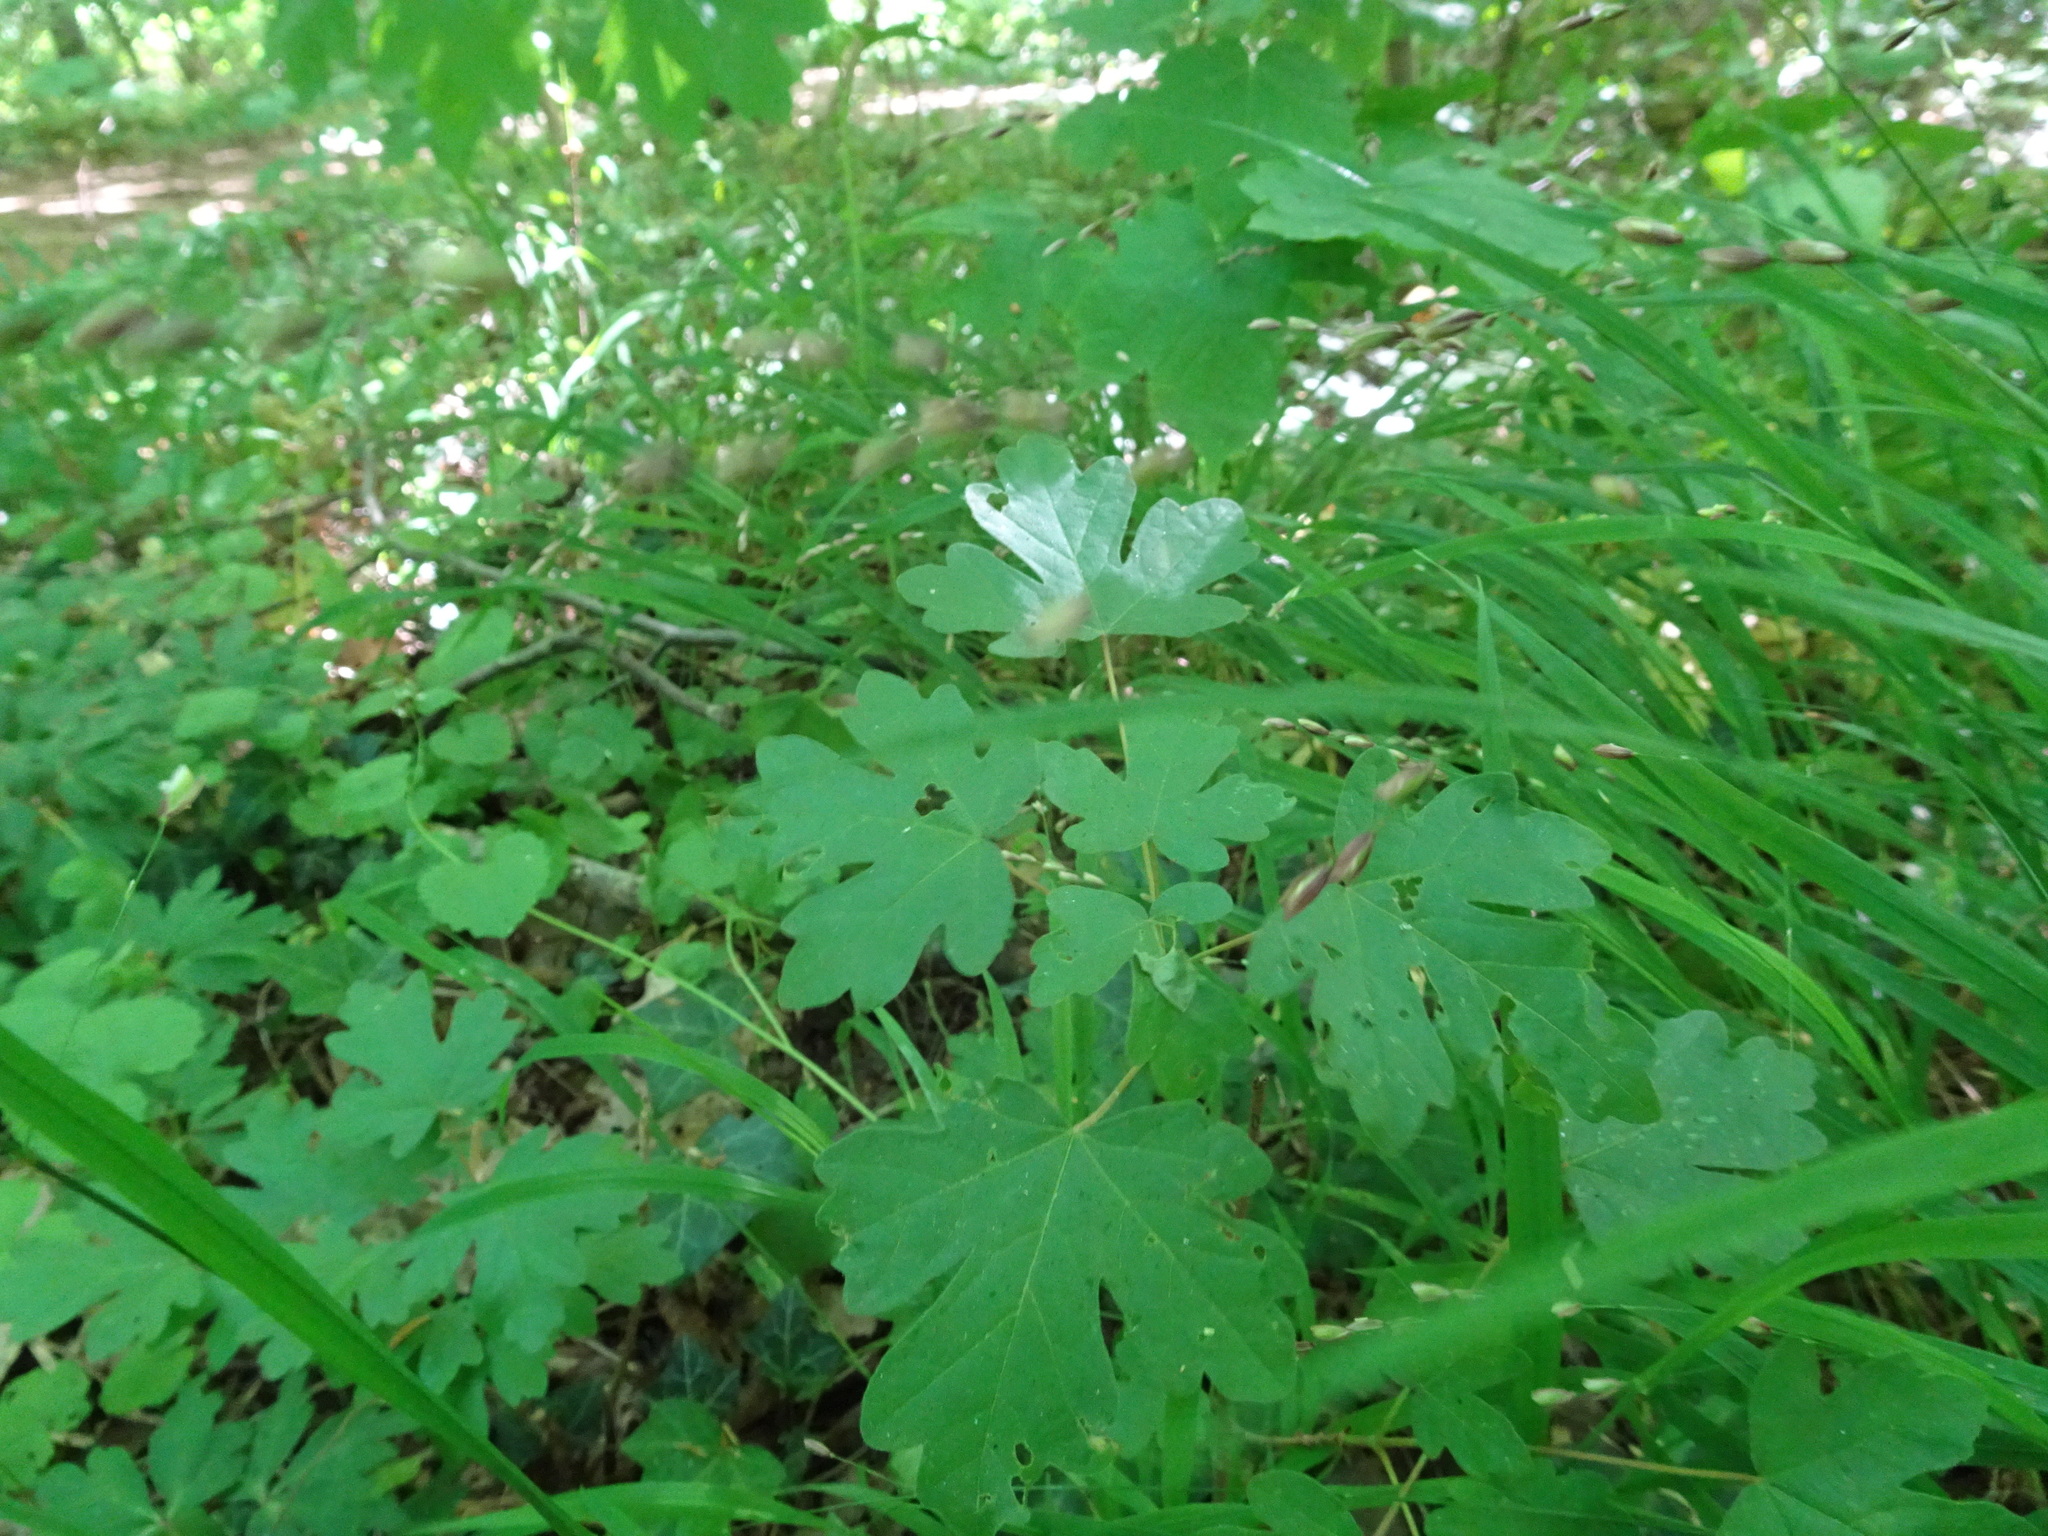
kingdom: Plantae
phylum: Tracheophyta
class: Magnoliopsida
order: Sapindales
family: Sapindaceae
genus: Acer
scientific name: Acer campestre
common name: Field maple
